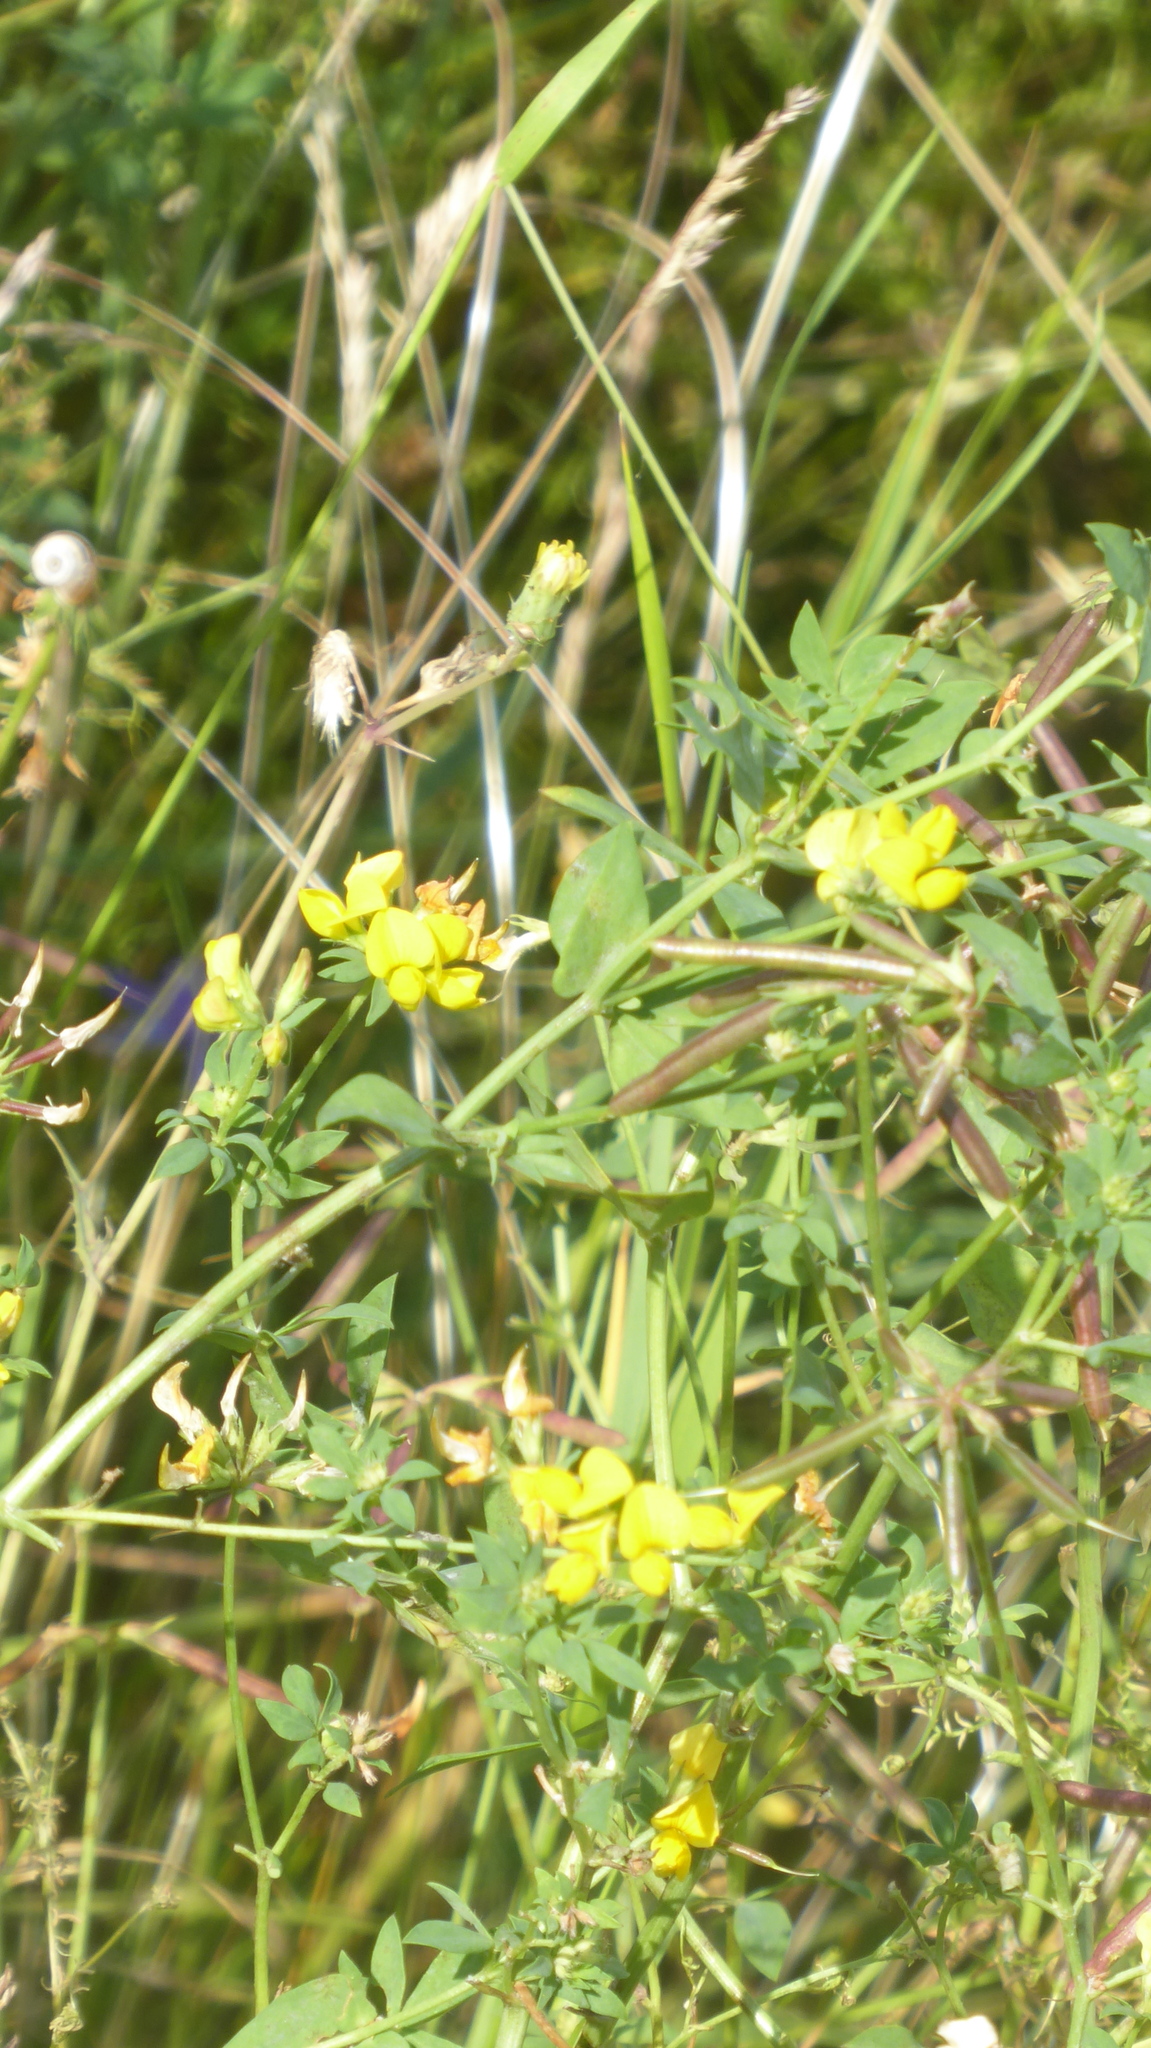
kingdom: Plantae
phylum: Tracheophyta
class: Magnoliopsida
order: Fabales
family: Fabaceae
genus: Lotus
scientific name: Lotus corniculatus
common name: Common bird's-foot-trefoil
